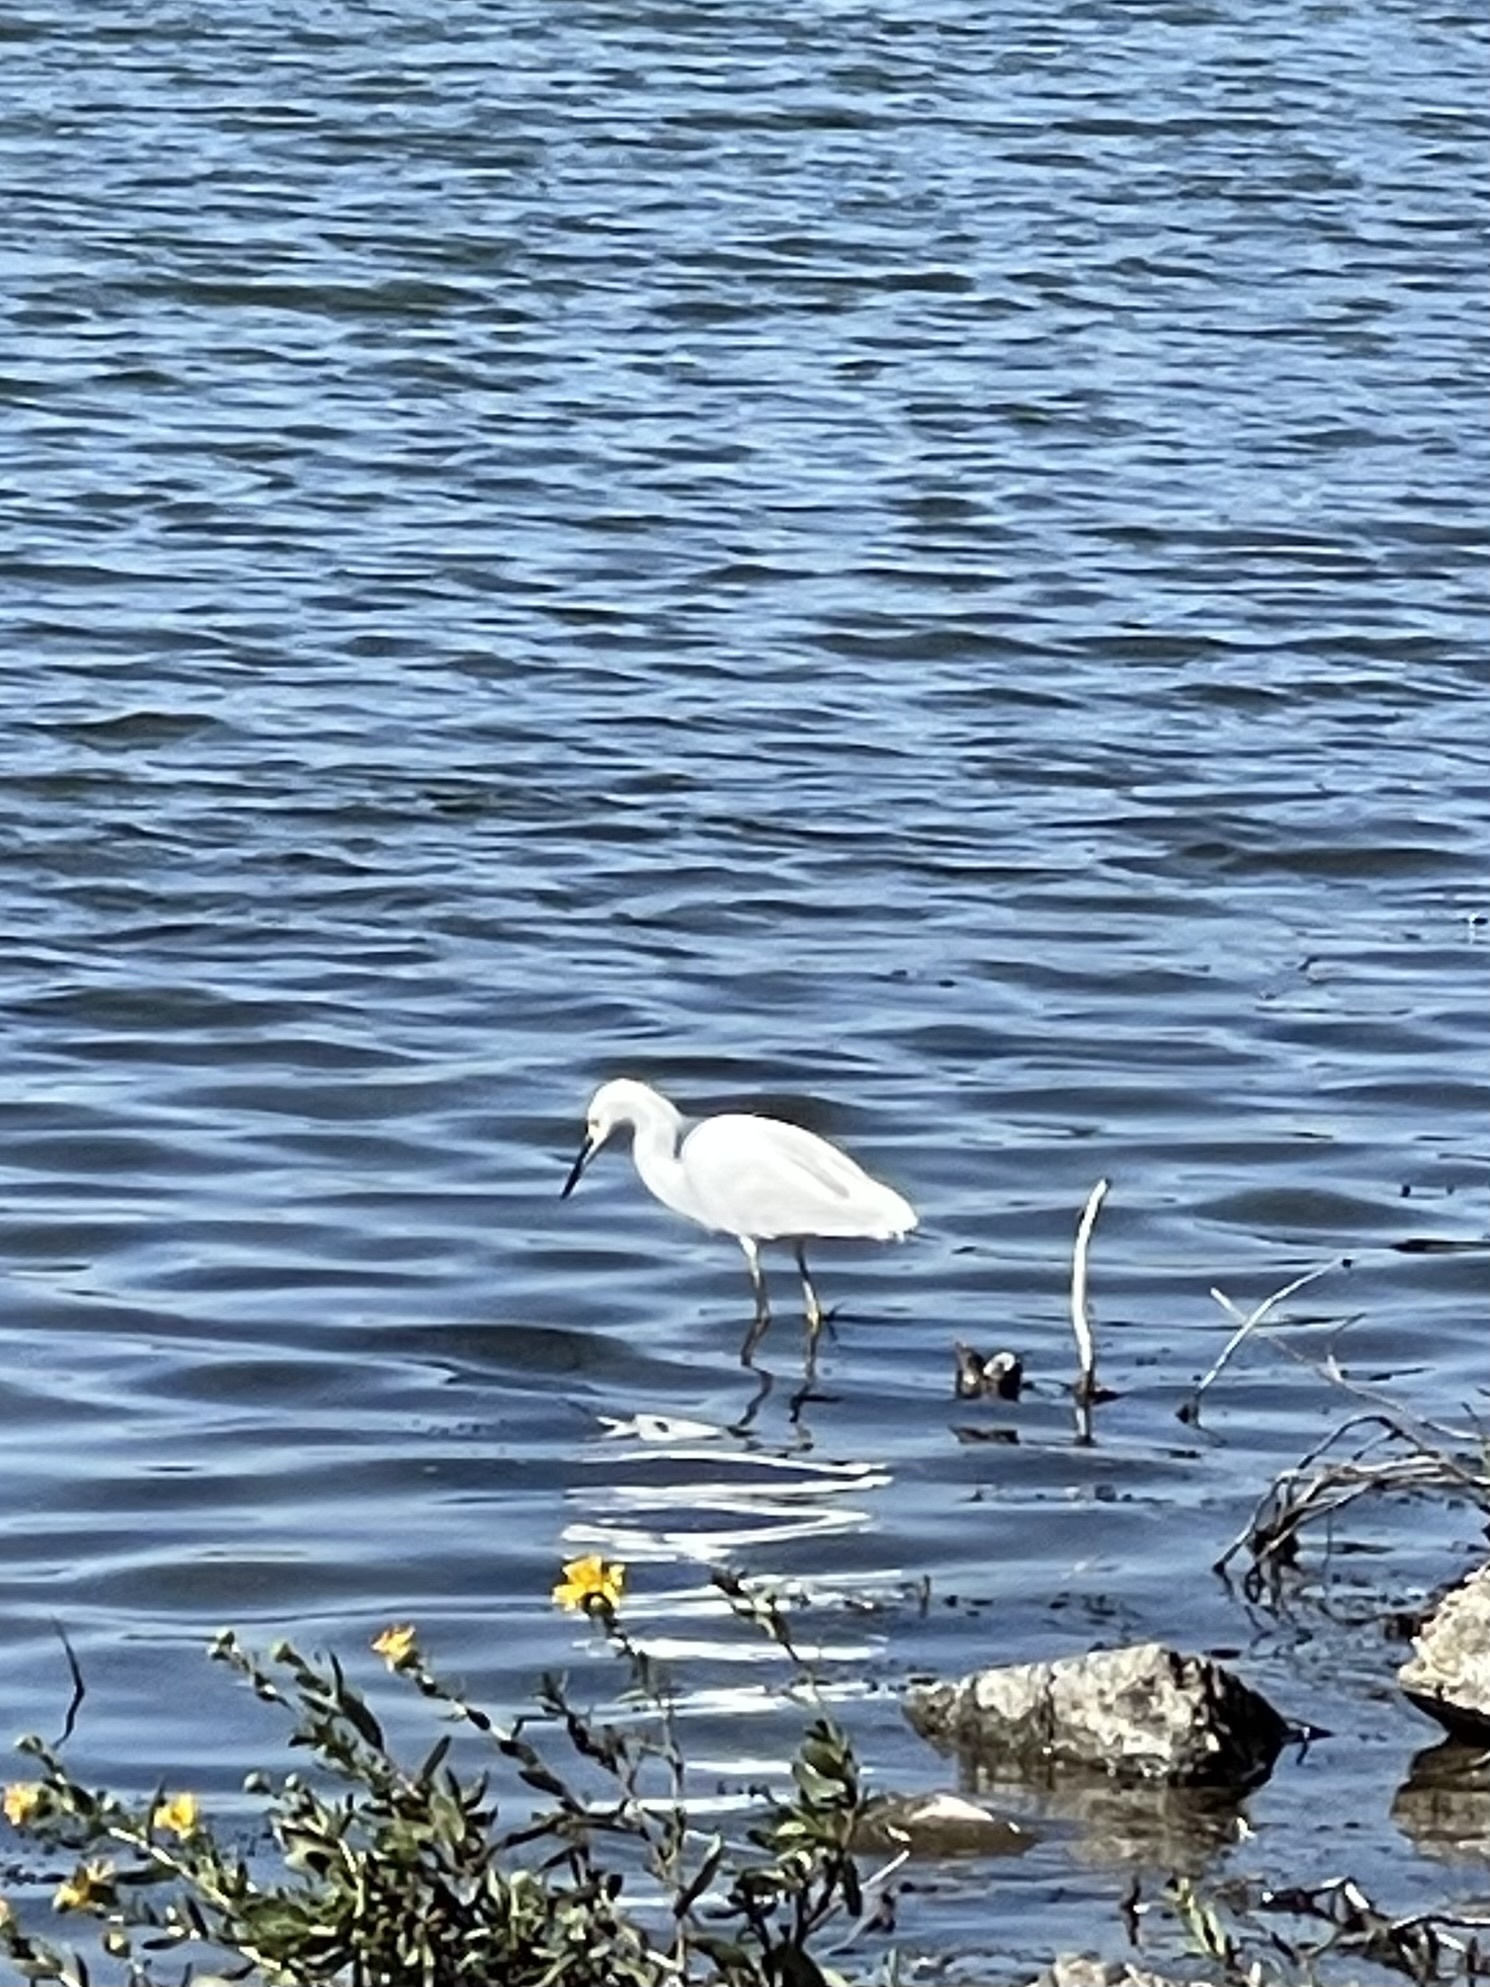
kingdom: Animalia
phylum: Chordata
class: Aves
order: Pelecaniformes
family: Ardeidae
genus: Egretta
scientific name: Egretta thula
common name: Snowy egret
